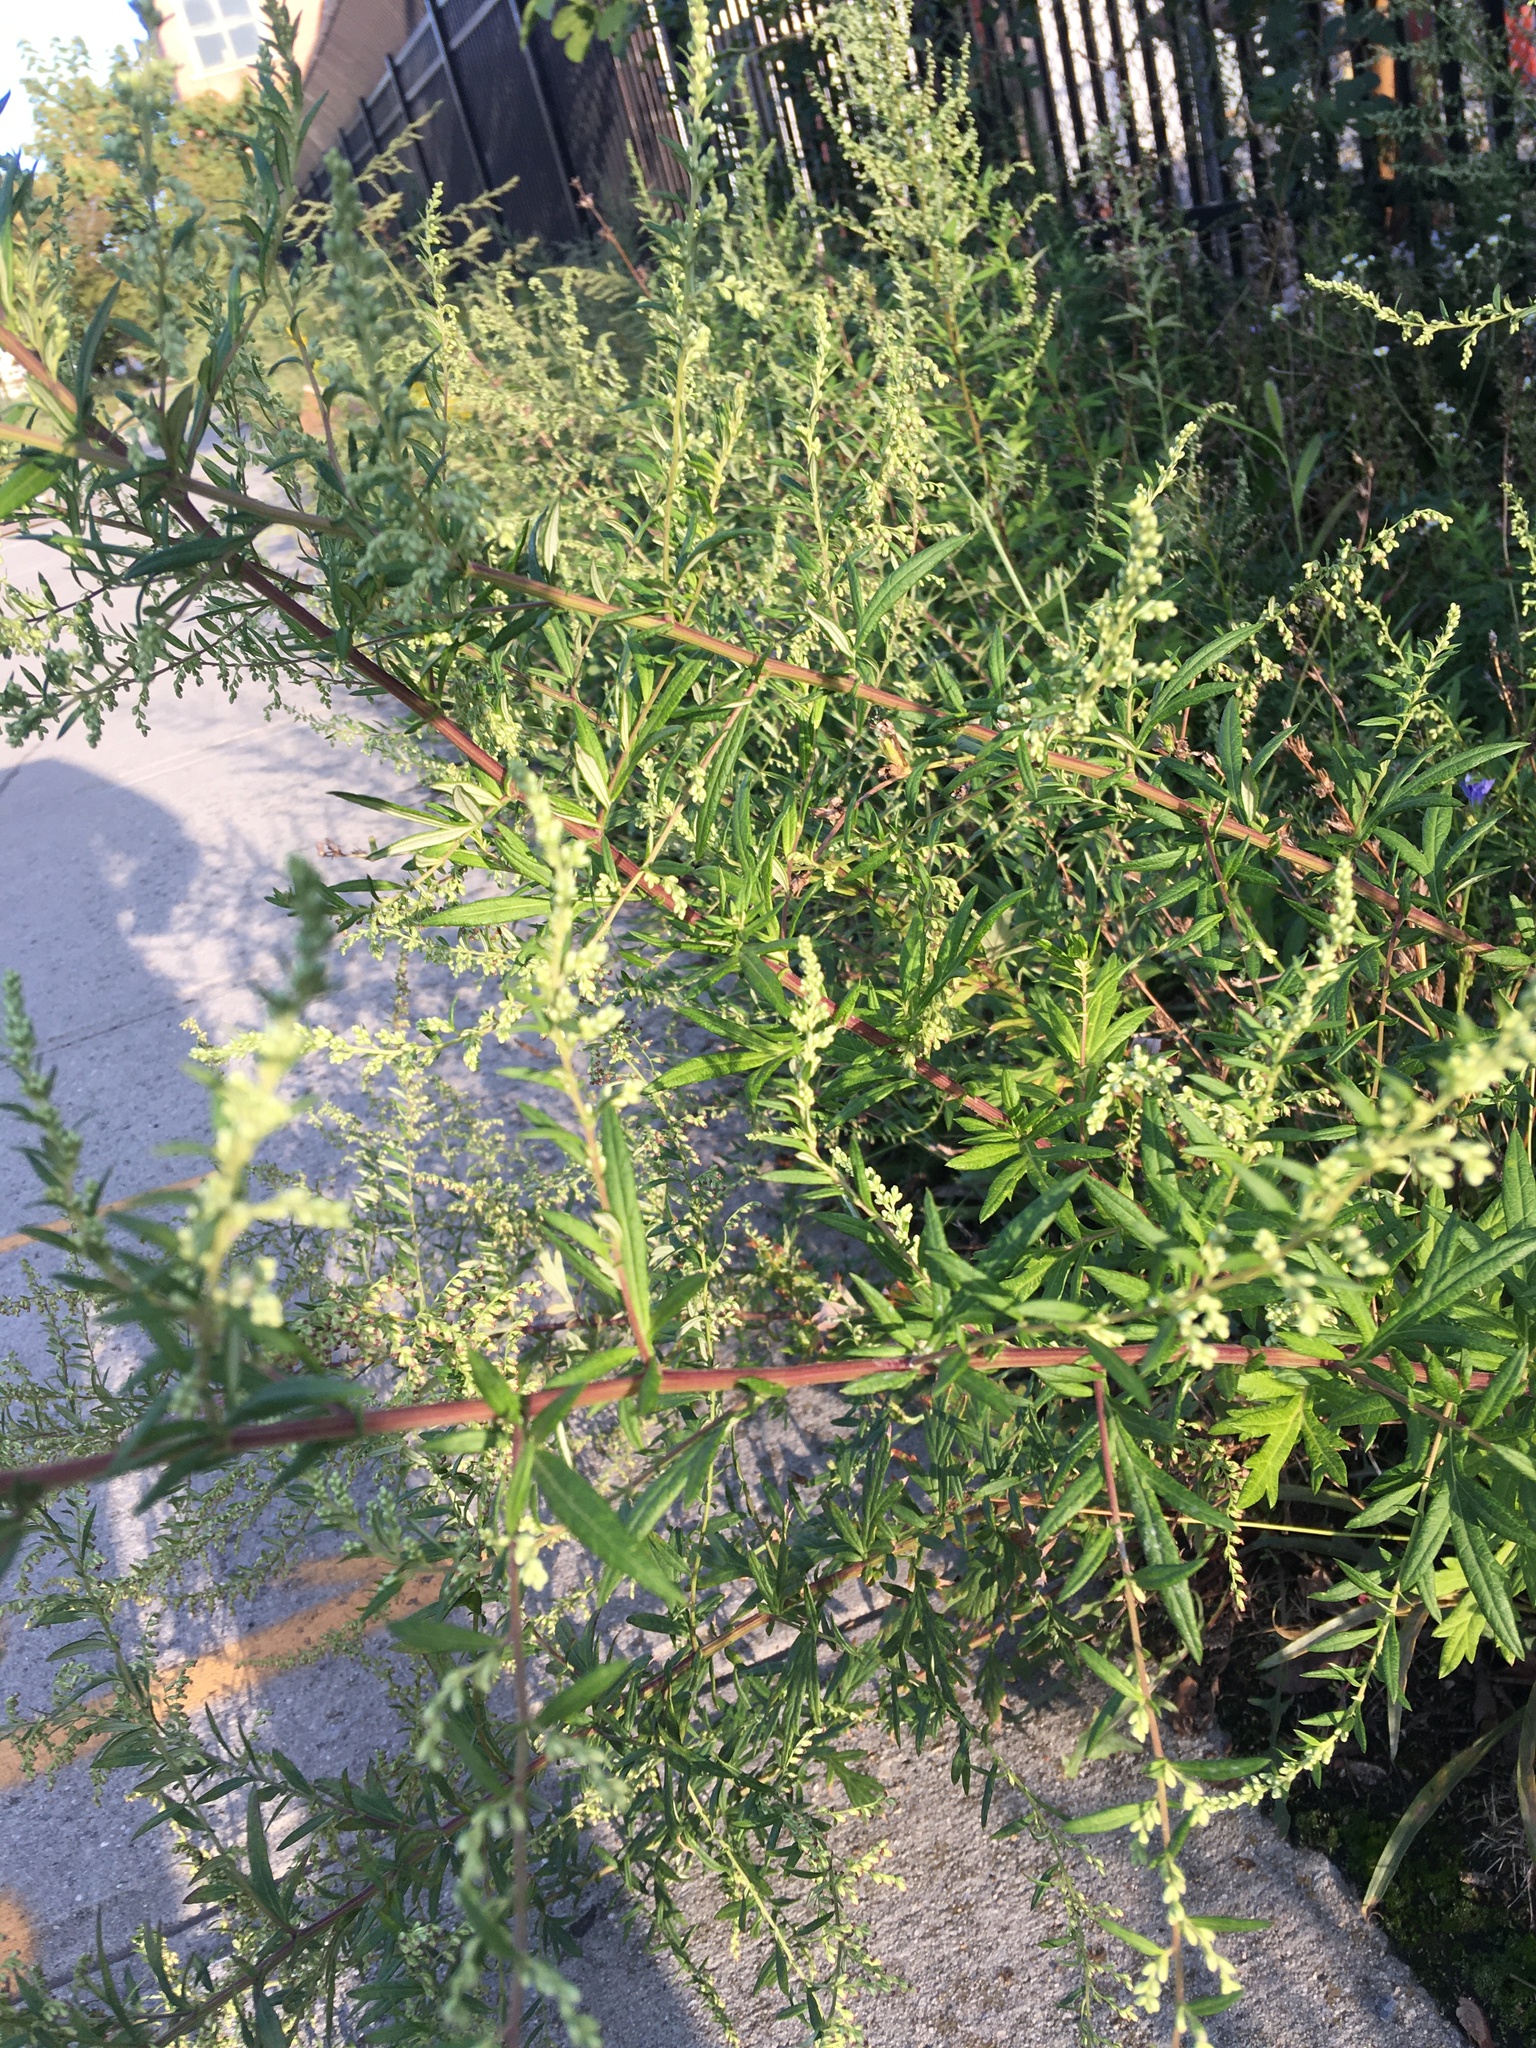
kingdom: Plantae
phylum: Tracheophyta
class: Magnoliopsida
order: Asterales
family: Asteraceae
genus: Artemisia
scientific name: Artemisia vulgaris
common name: Mugwort
